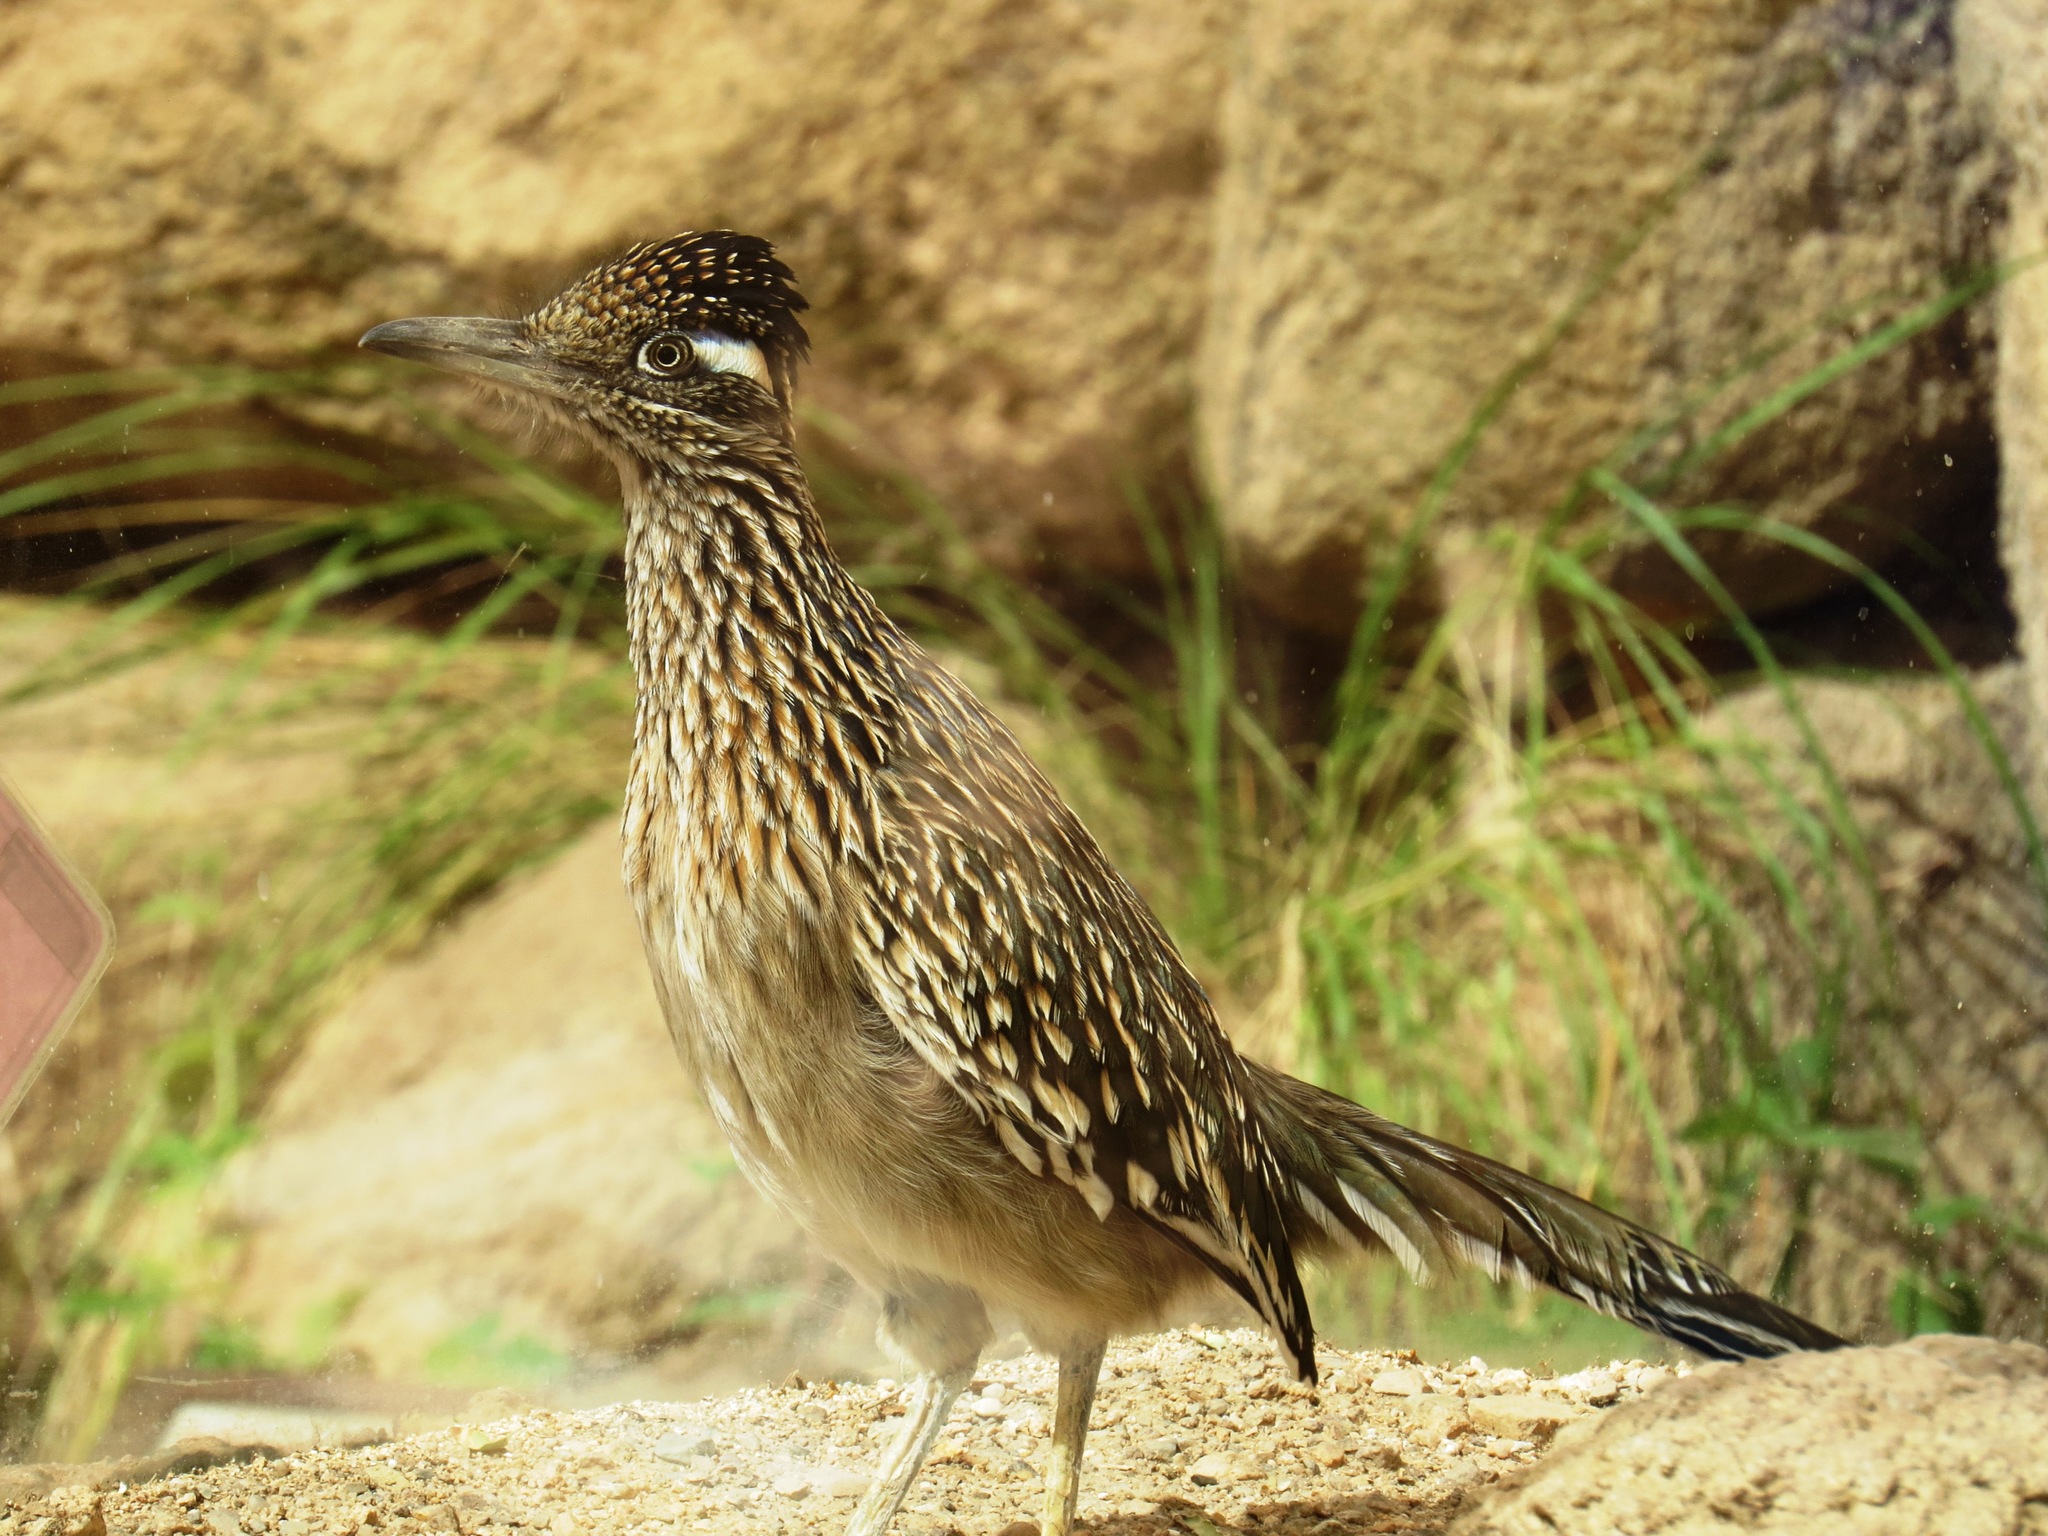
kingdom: Animalia
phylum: Chordata
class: Aves
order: Cuculiformes
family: Cuculidae
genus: Geococcyx
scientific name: Geococcyx californianus
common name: Greater roadrunner
